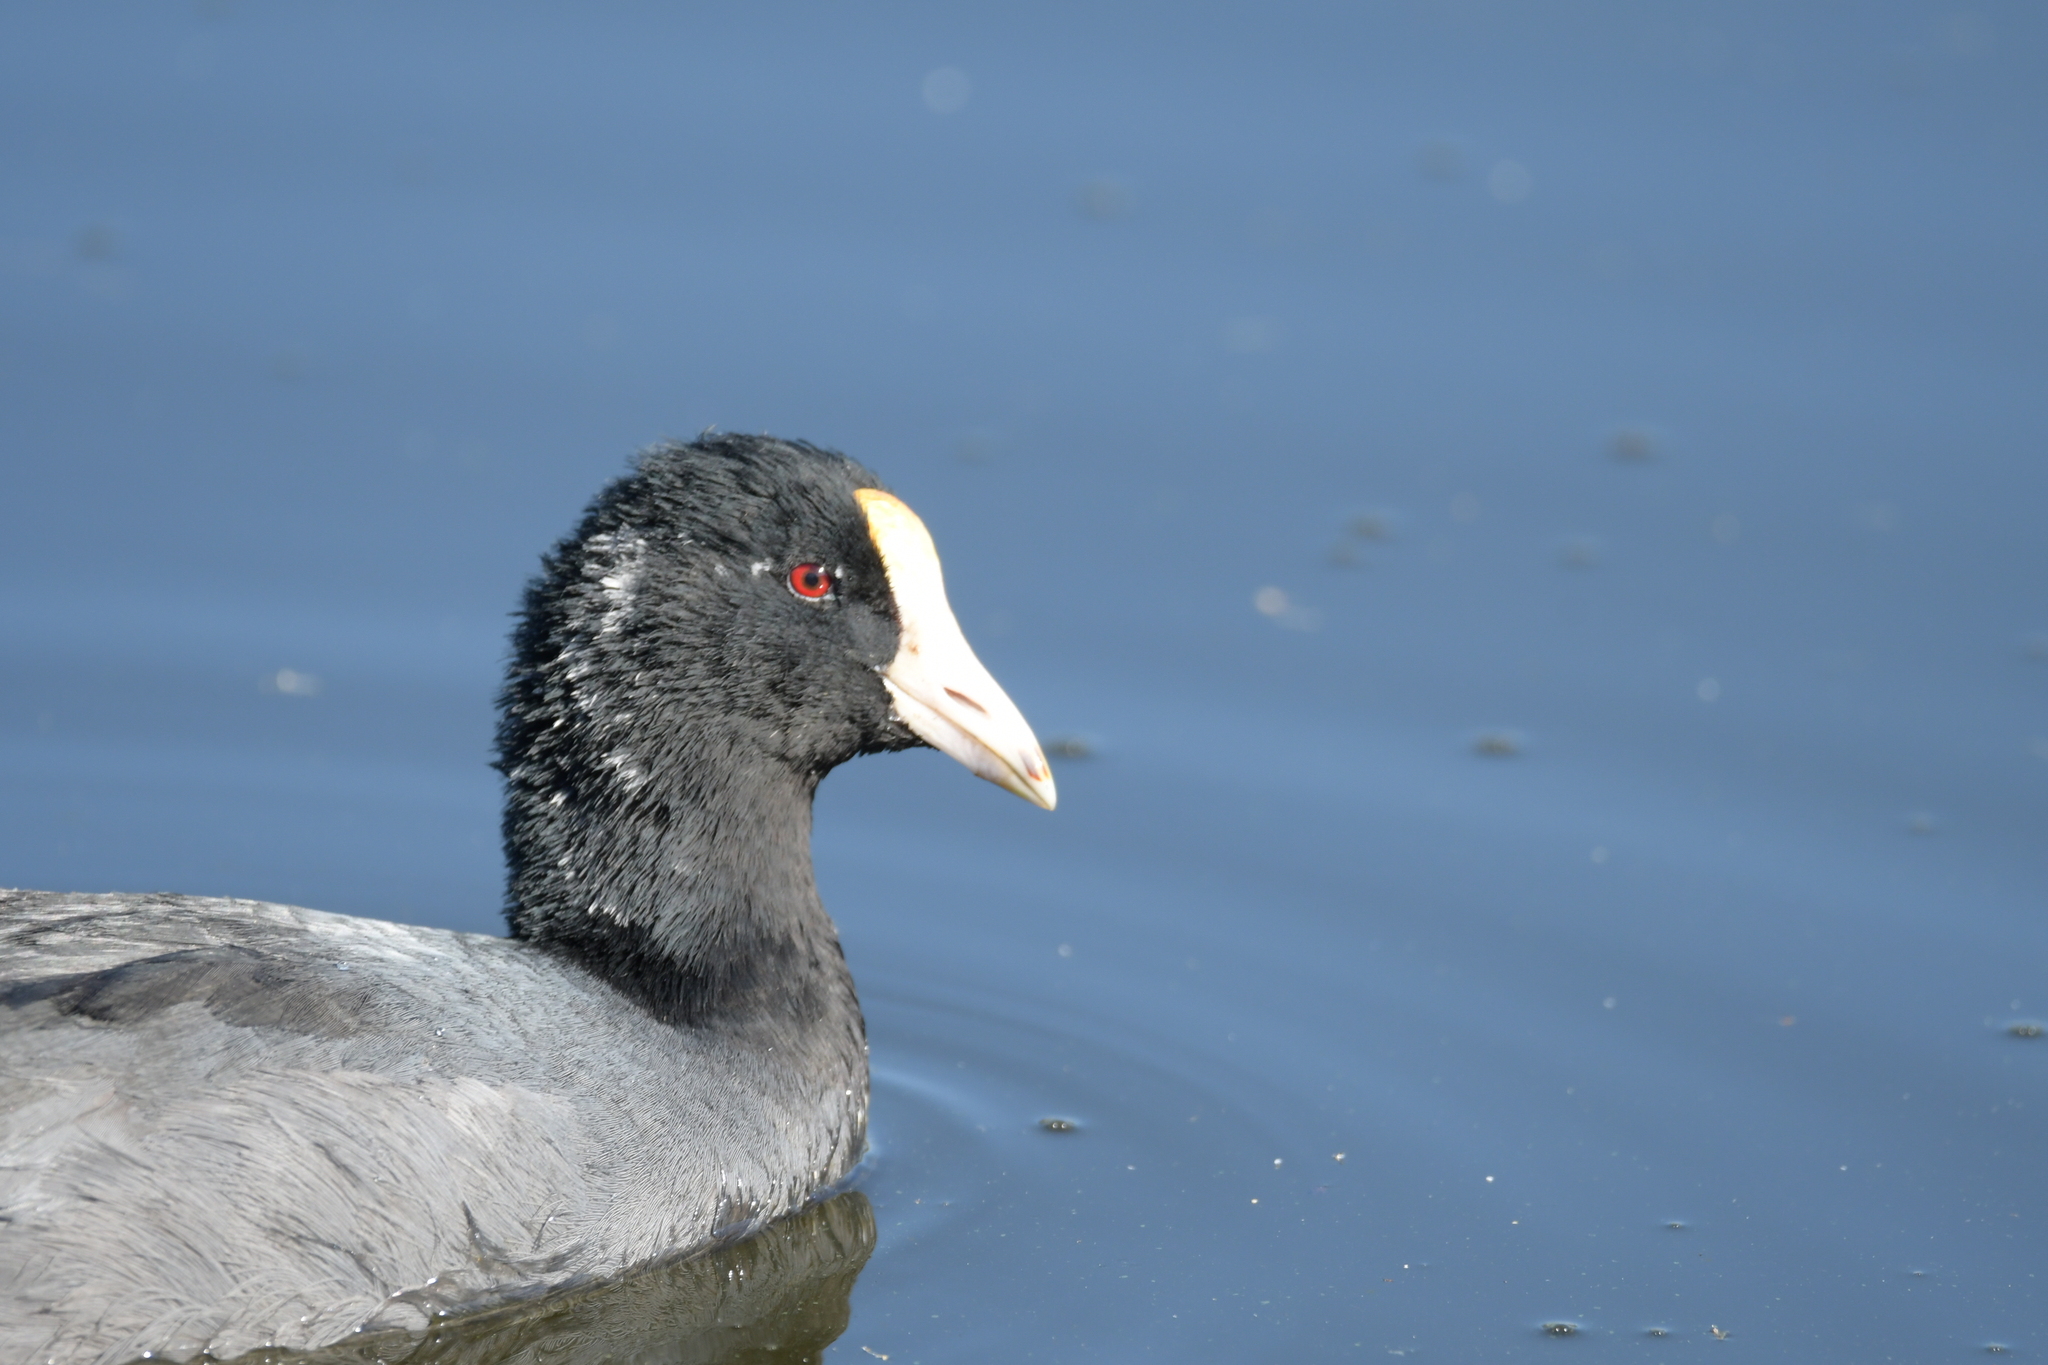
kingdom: Animalia
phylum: Chordata
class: Aves
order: Gruiformes
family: Rallidae
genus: Fulica
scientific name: Fulica americana
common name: American coot
